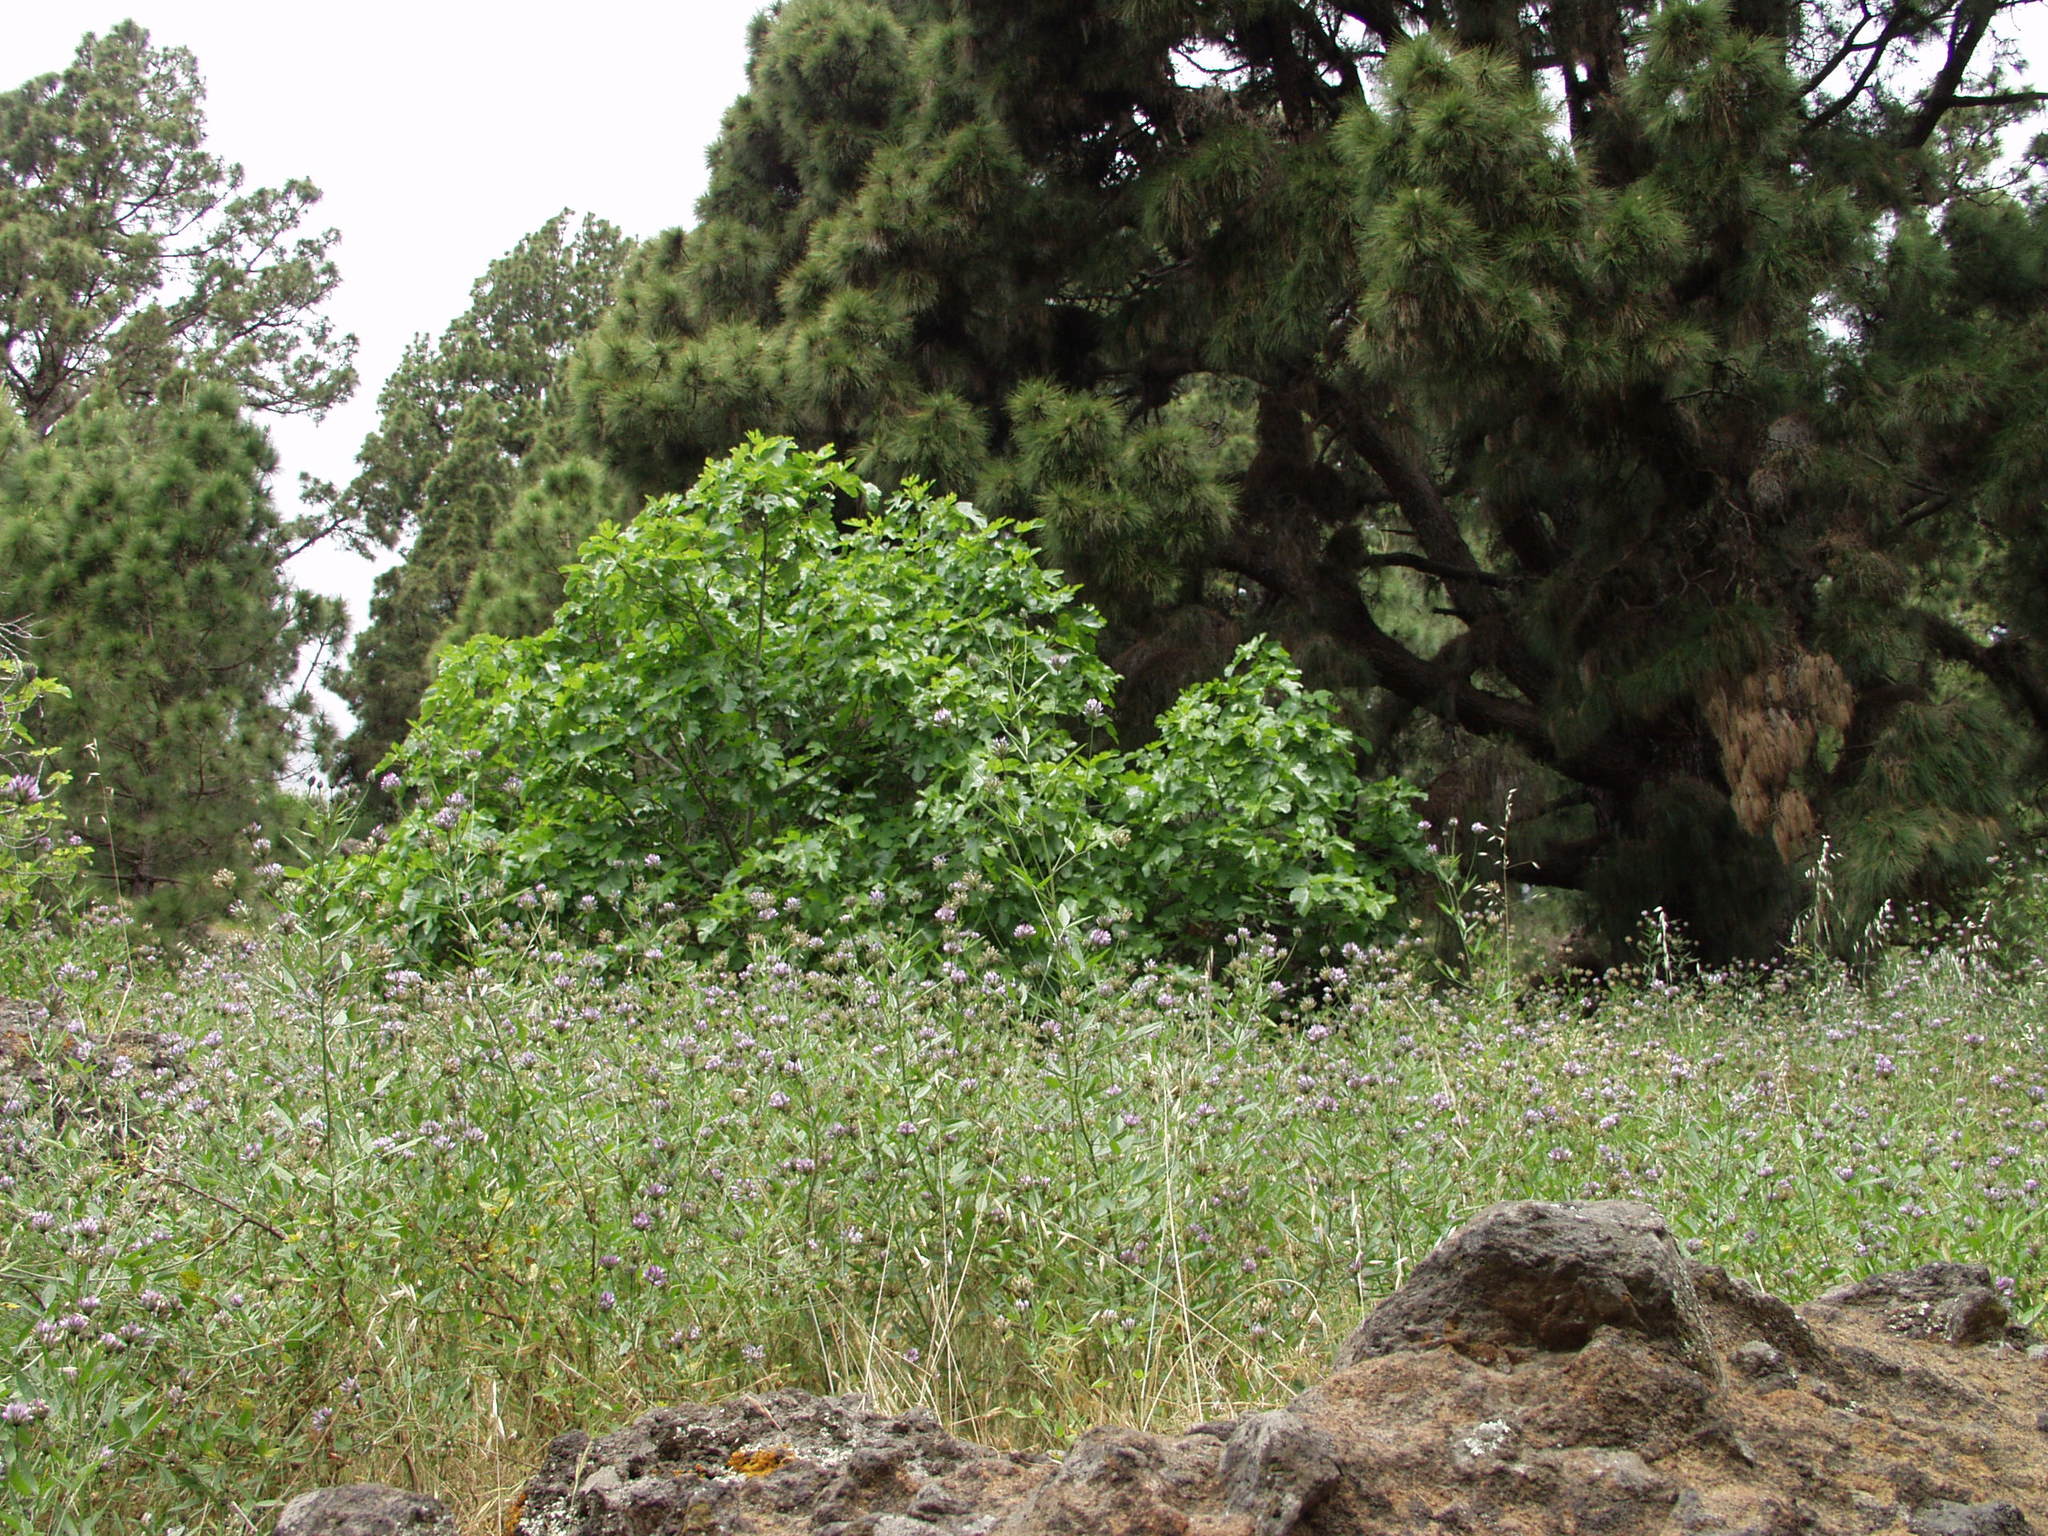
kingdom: Plantae
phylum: Tracheophyta
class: Magnoliopsida
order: Fabales
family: Fabaceae
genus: Bituminaria
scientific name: Bituminaria bituminosa
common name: Arabian pea
